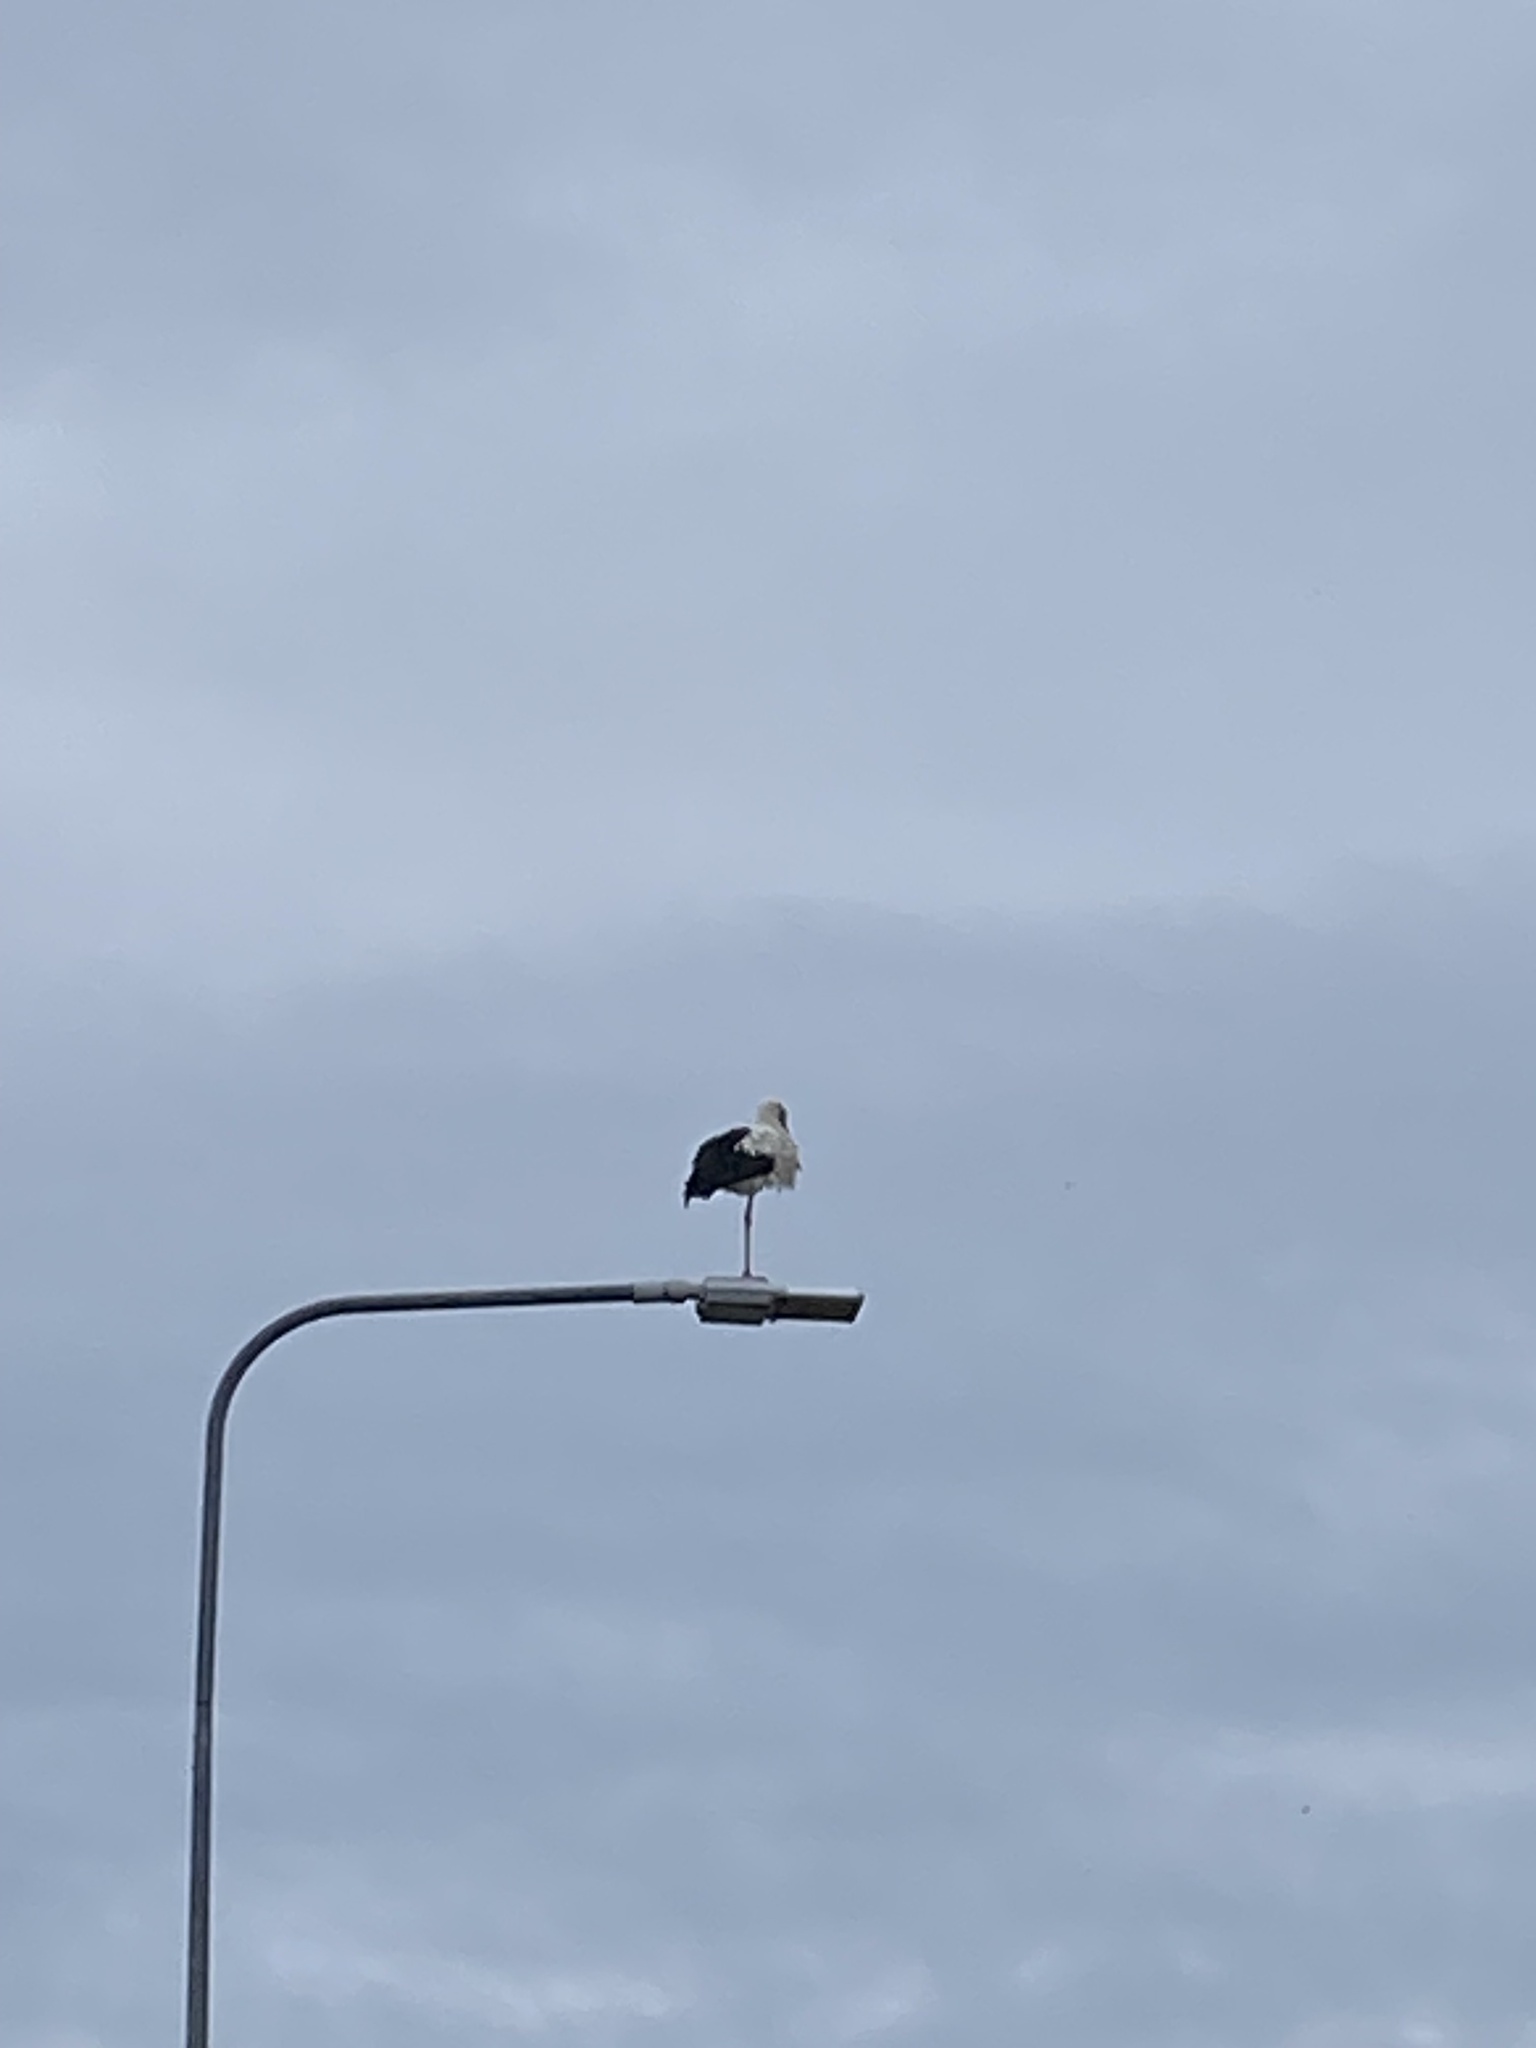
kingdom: Animalia
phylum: Chordata
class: Aves
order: Ciconiiformes
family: Ciconiidae
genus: Ciconia
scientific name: Ciconia ciconia
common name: White stork
